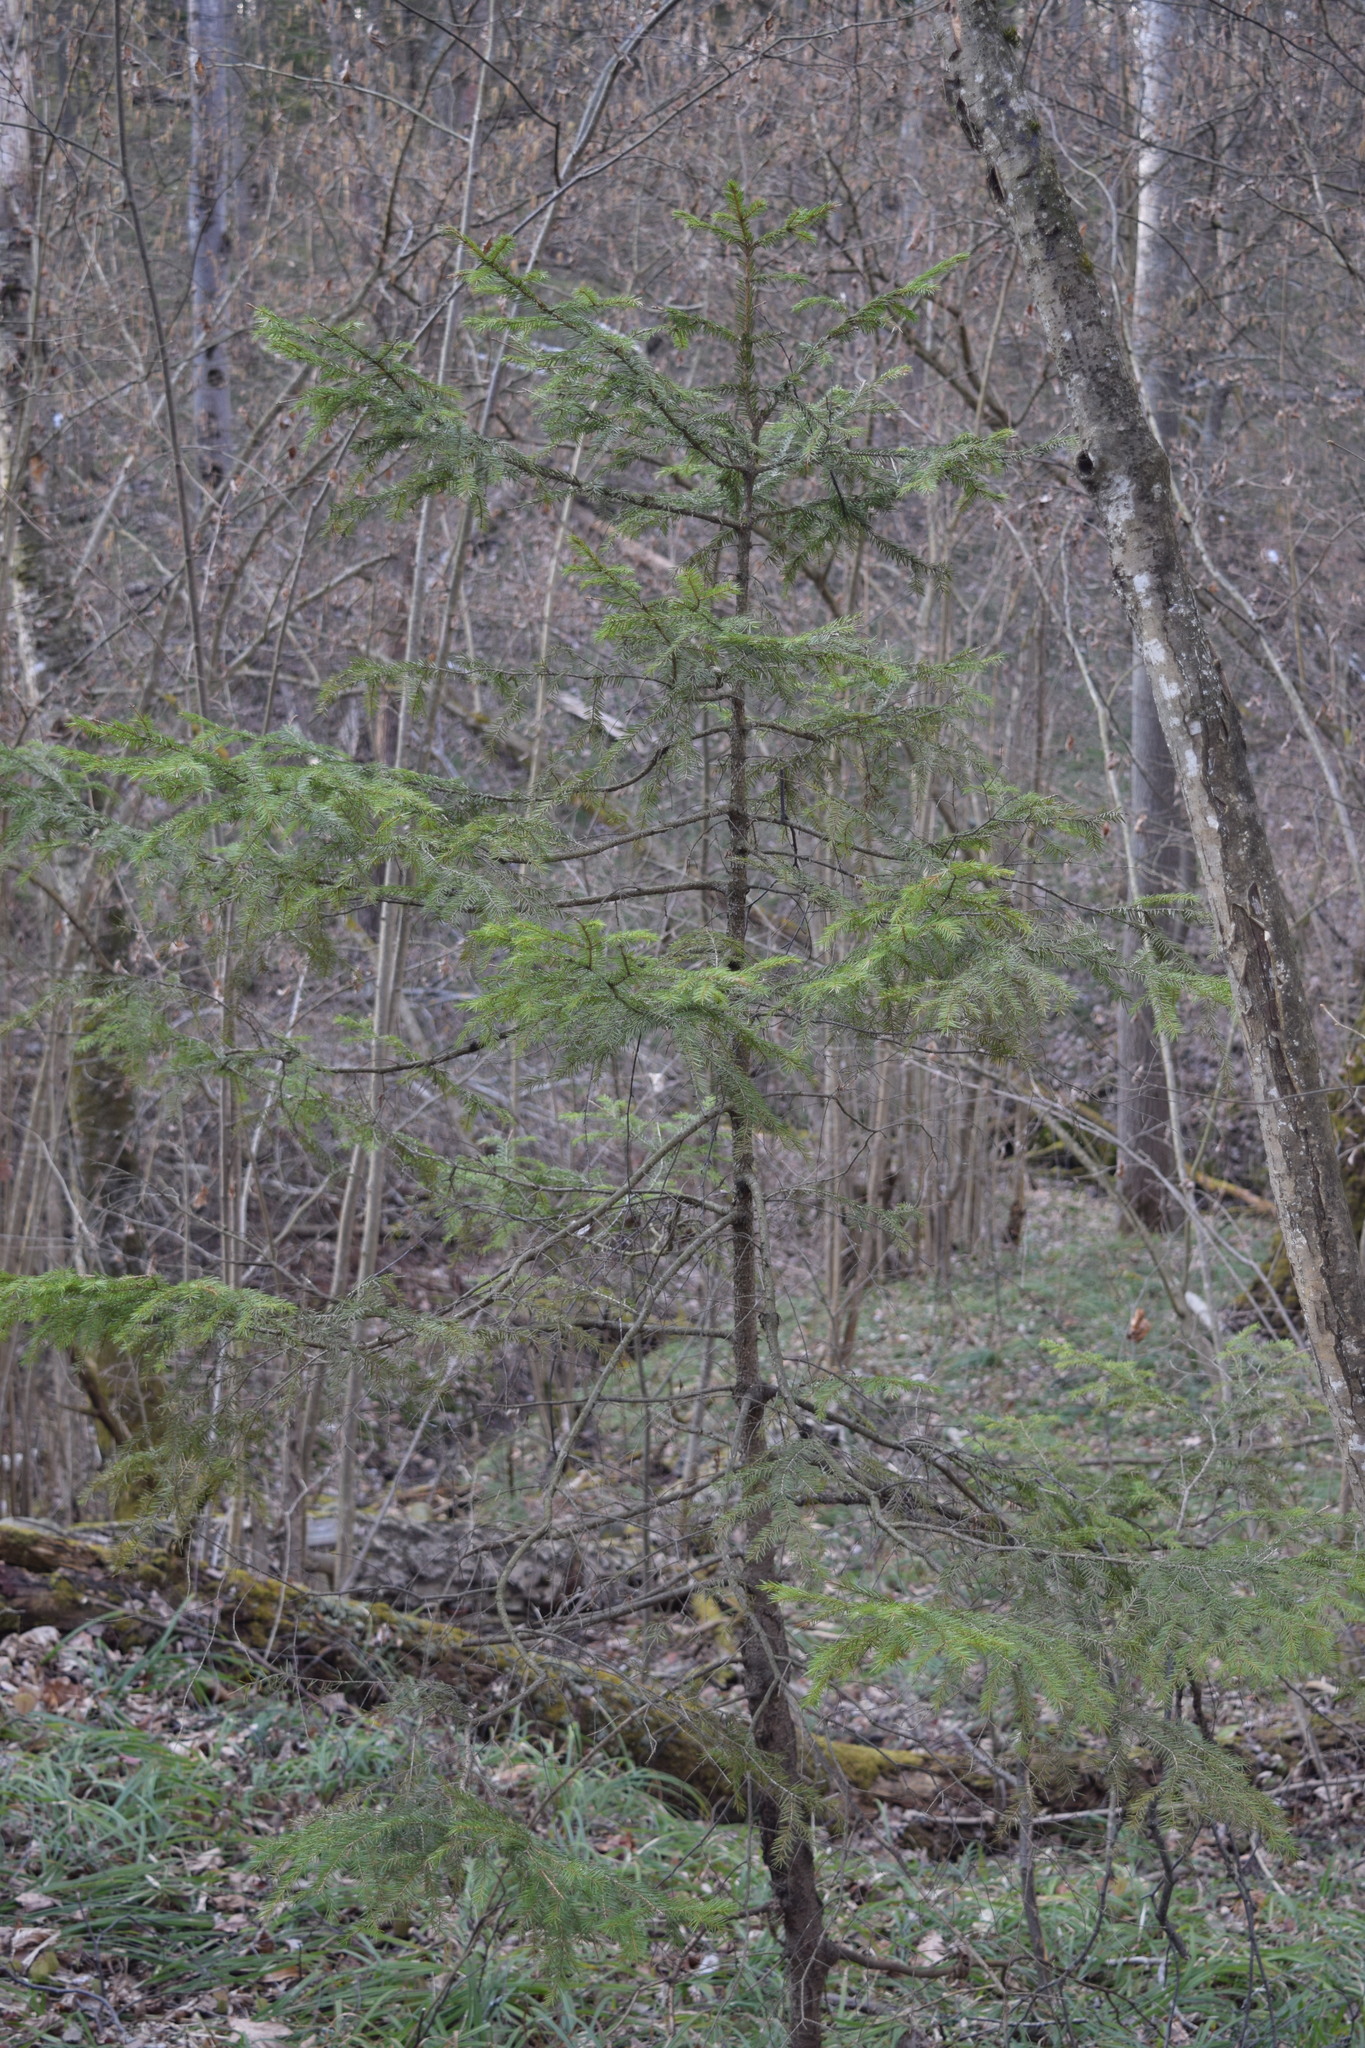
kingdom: Plantae
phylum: Tracheophyta
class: Pinopsida
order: Pinales
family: Pinaceae
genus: Picea
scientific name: Picea abies
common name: Norway spruce
